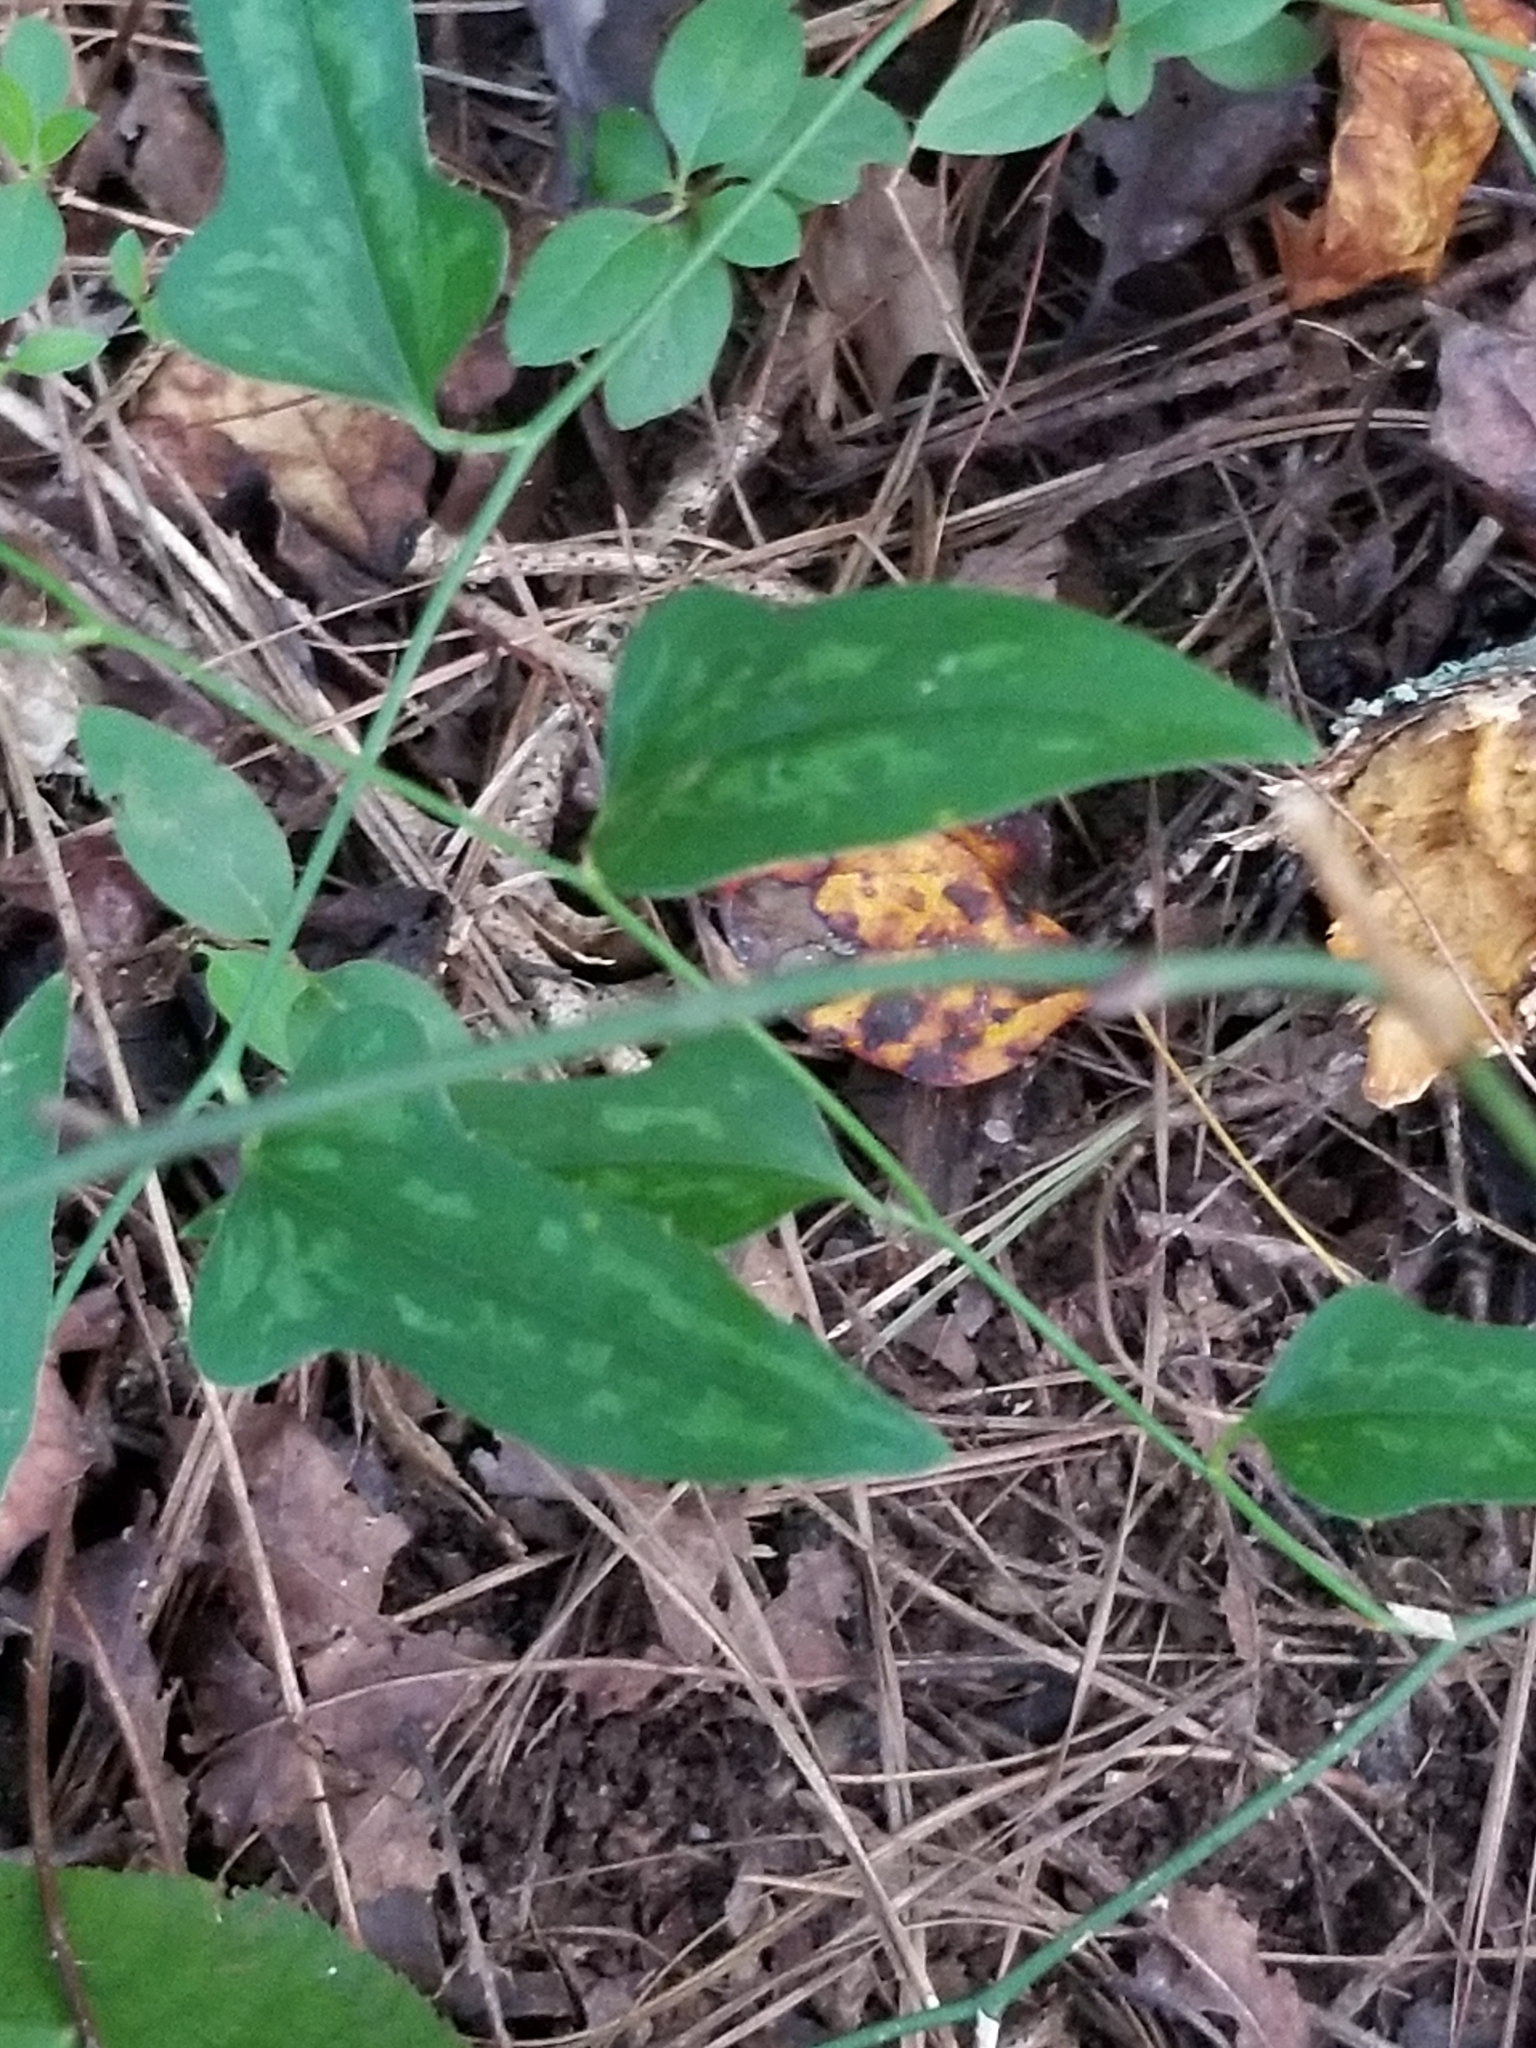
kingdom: Plantae
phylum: Tracheophyta
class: Liliopsida
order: Liliales
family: Smilacaceae
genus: Smilax
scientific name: Smilax bona-nox
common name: Catbrier
